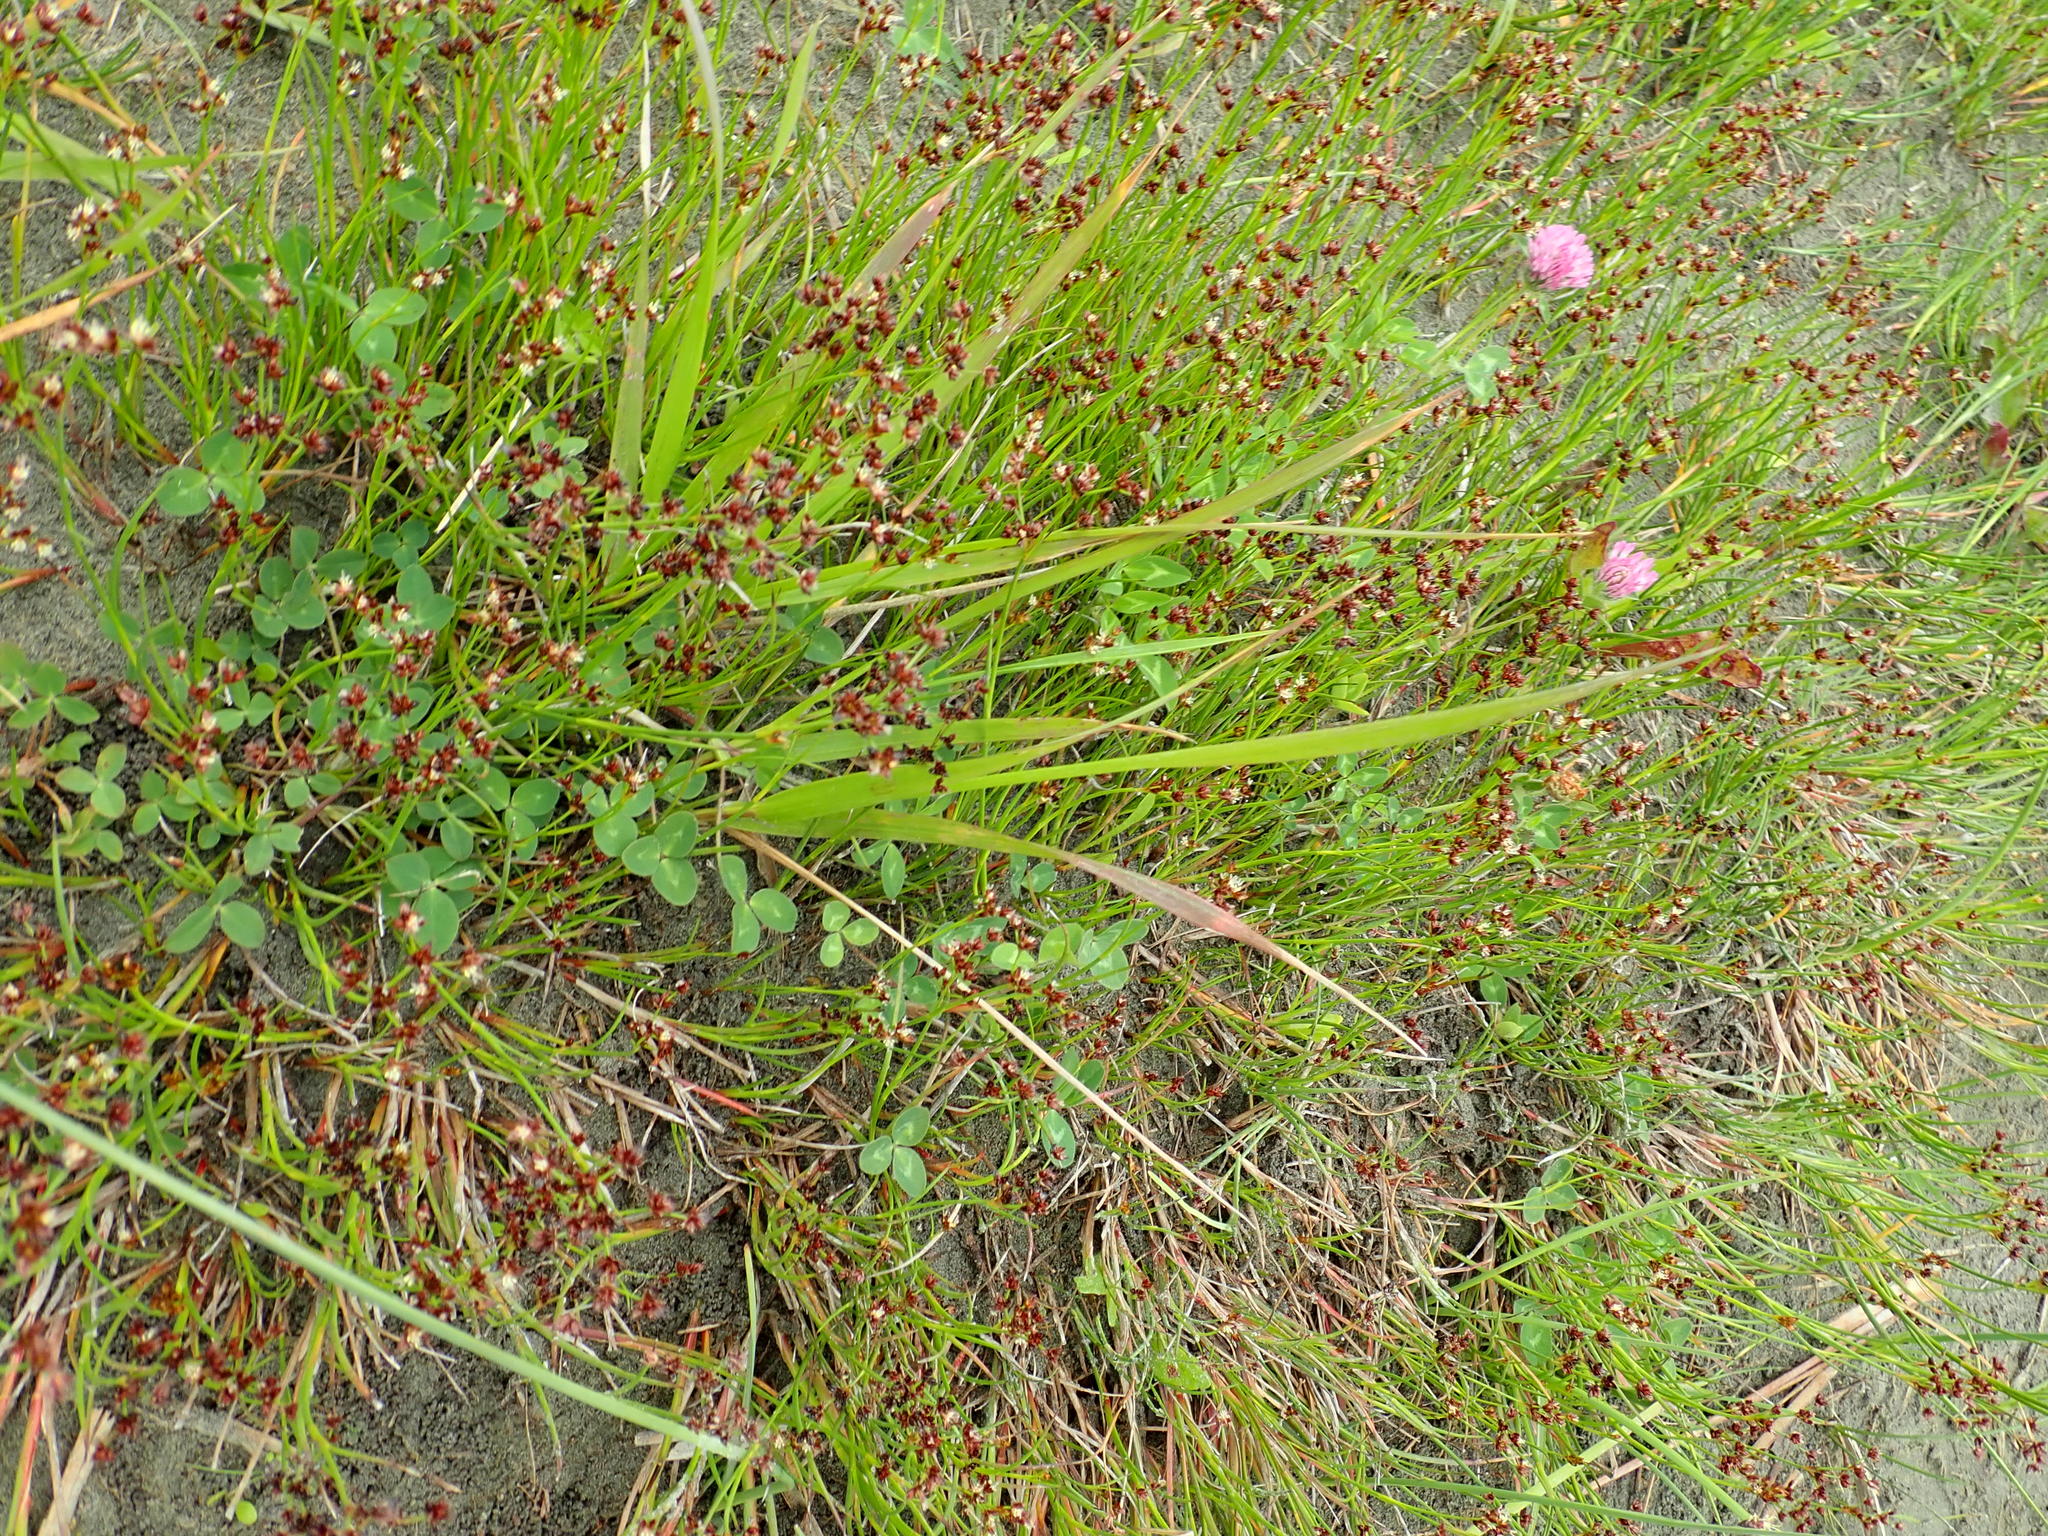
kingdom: Plantae
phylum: Tracheophyta
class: Liliopsida
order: Poales
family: Juncaceae
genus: Juncus
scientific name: Juncus articulatus
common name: Jointed rush
